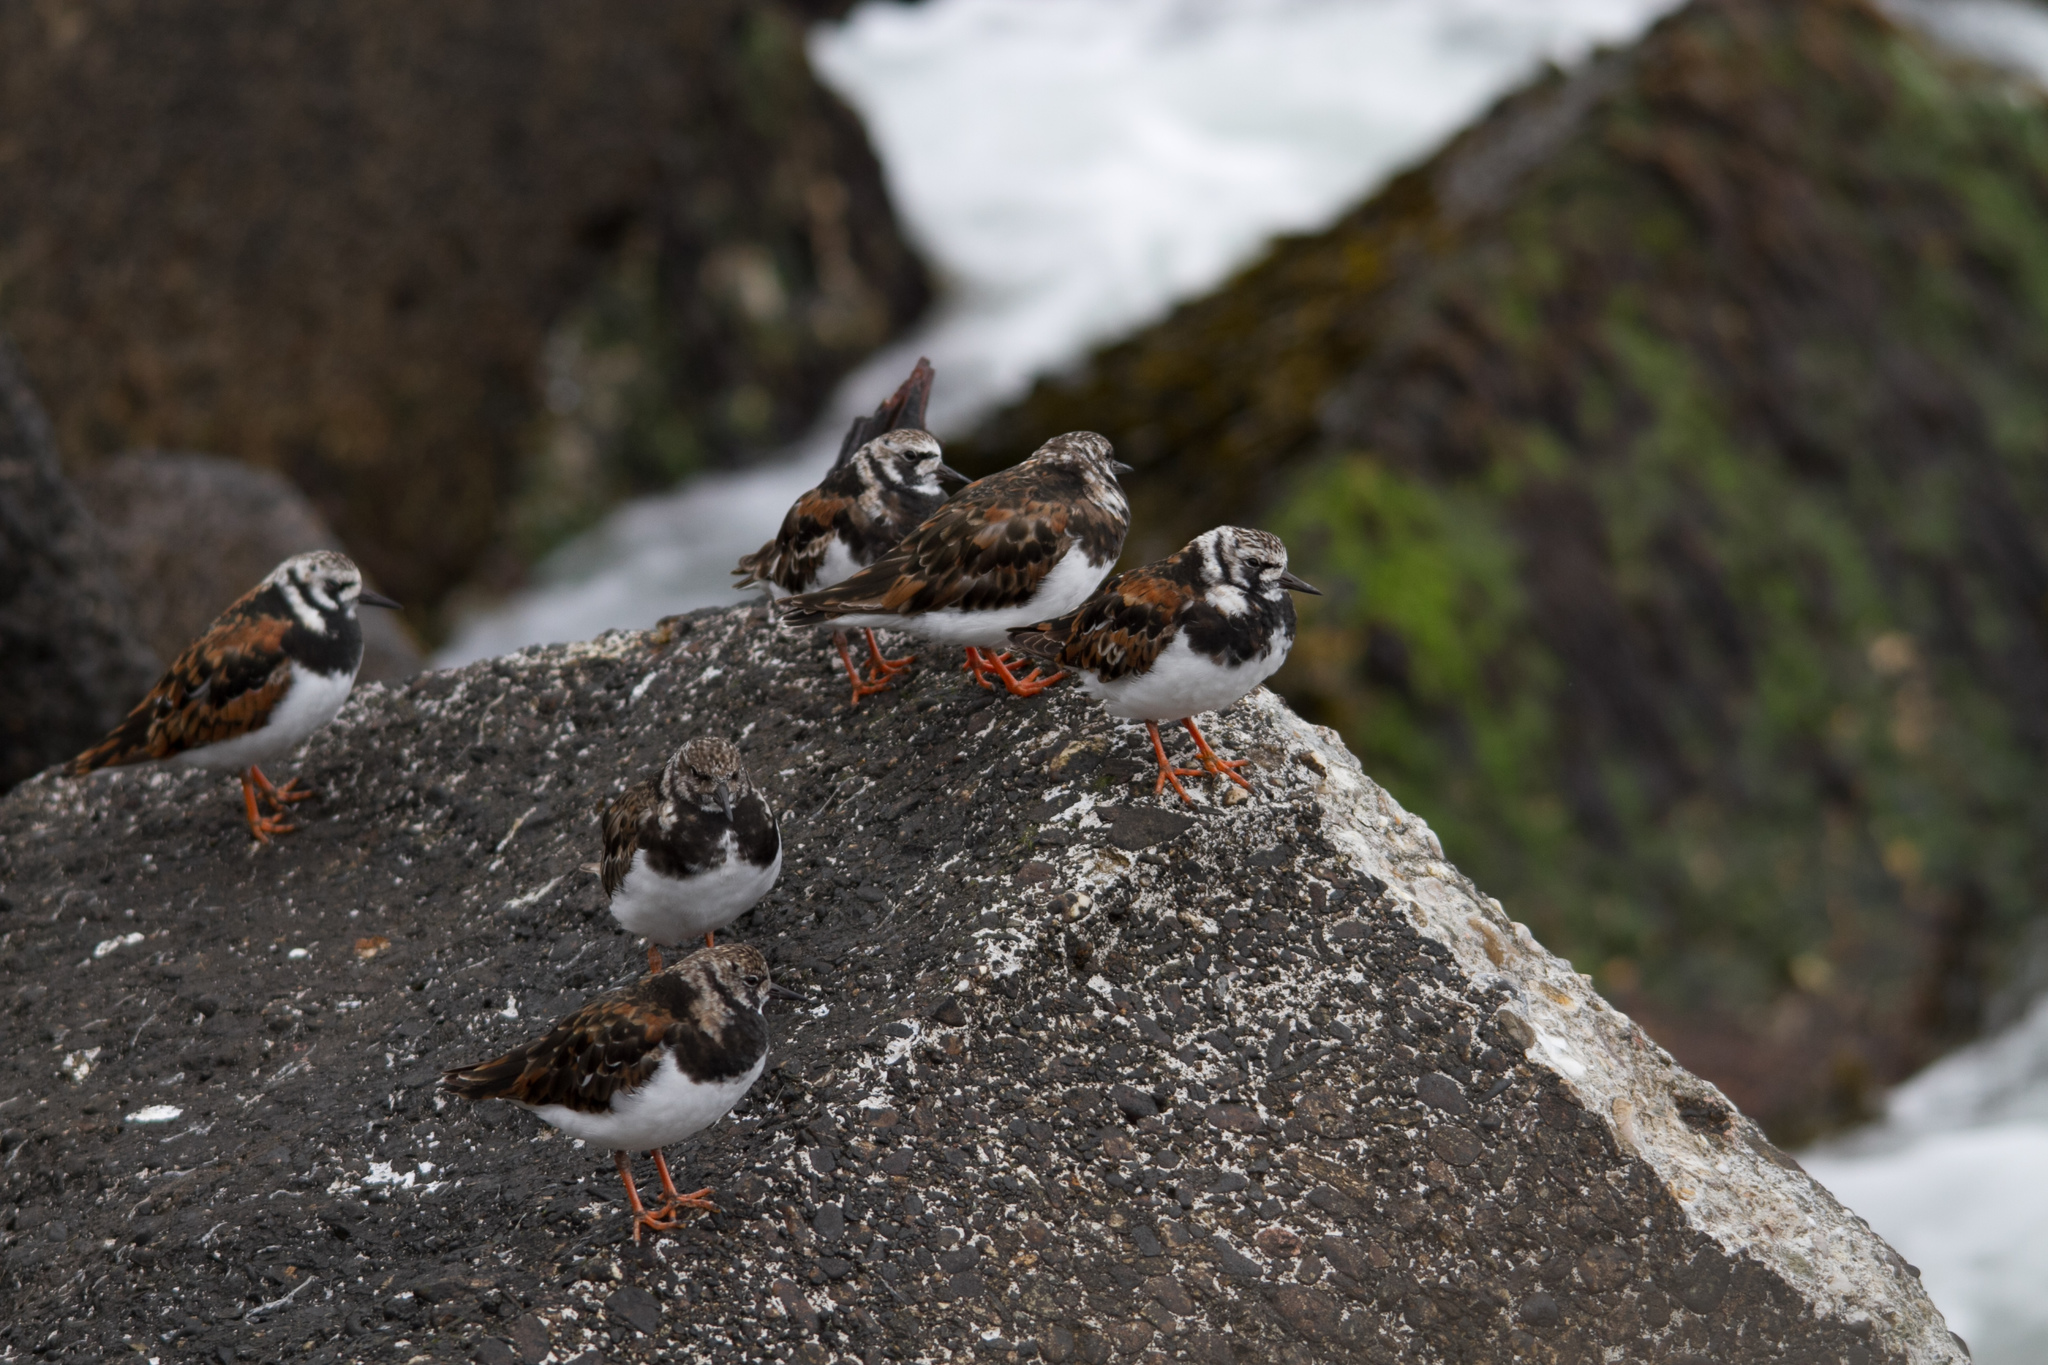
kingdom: Animalia
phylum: Chordata
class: Aves
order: Charadriiformes
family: Scolopacidae
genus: Arenaria
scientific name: Arenaria interpres
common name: Ruddy turnstone
